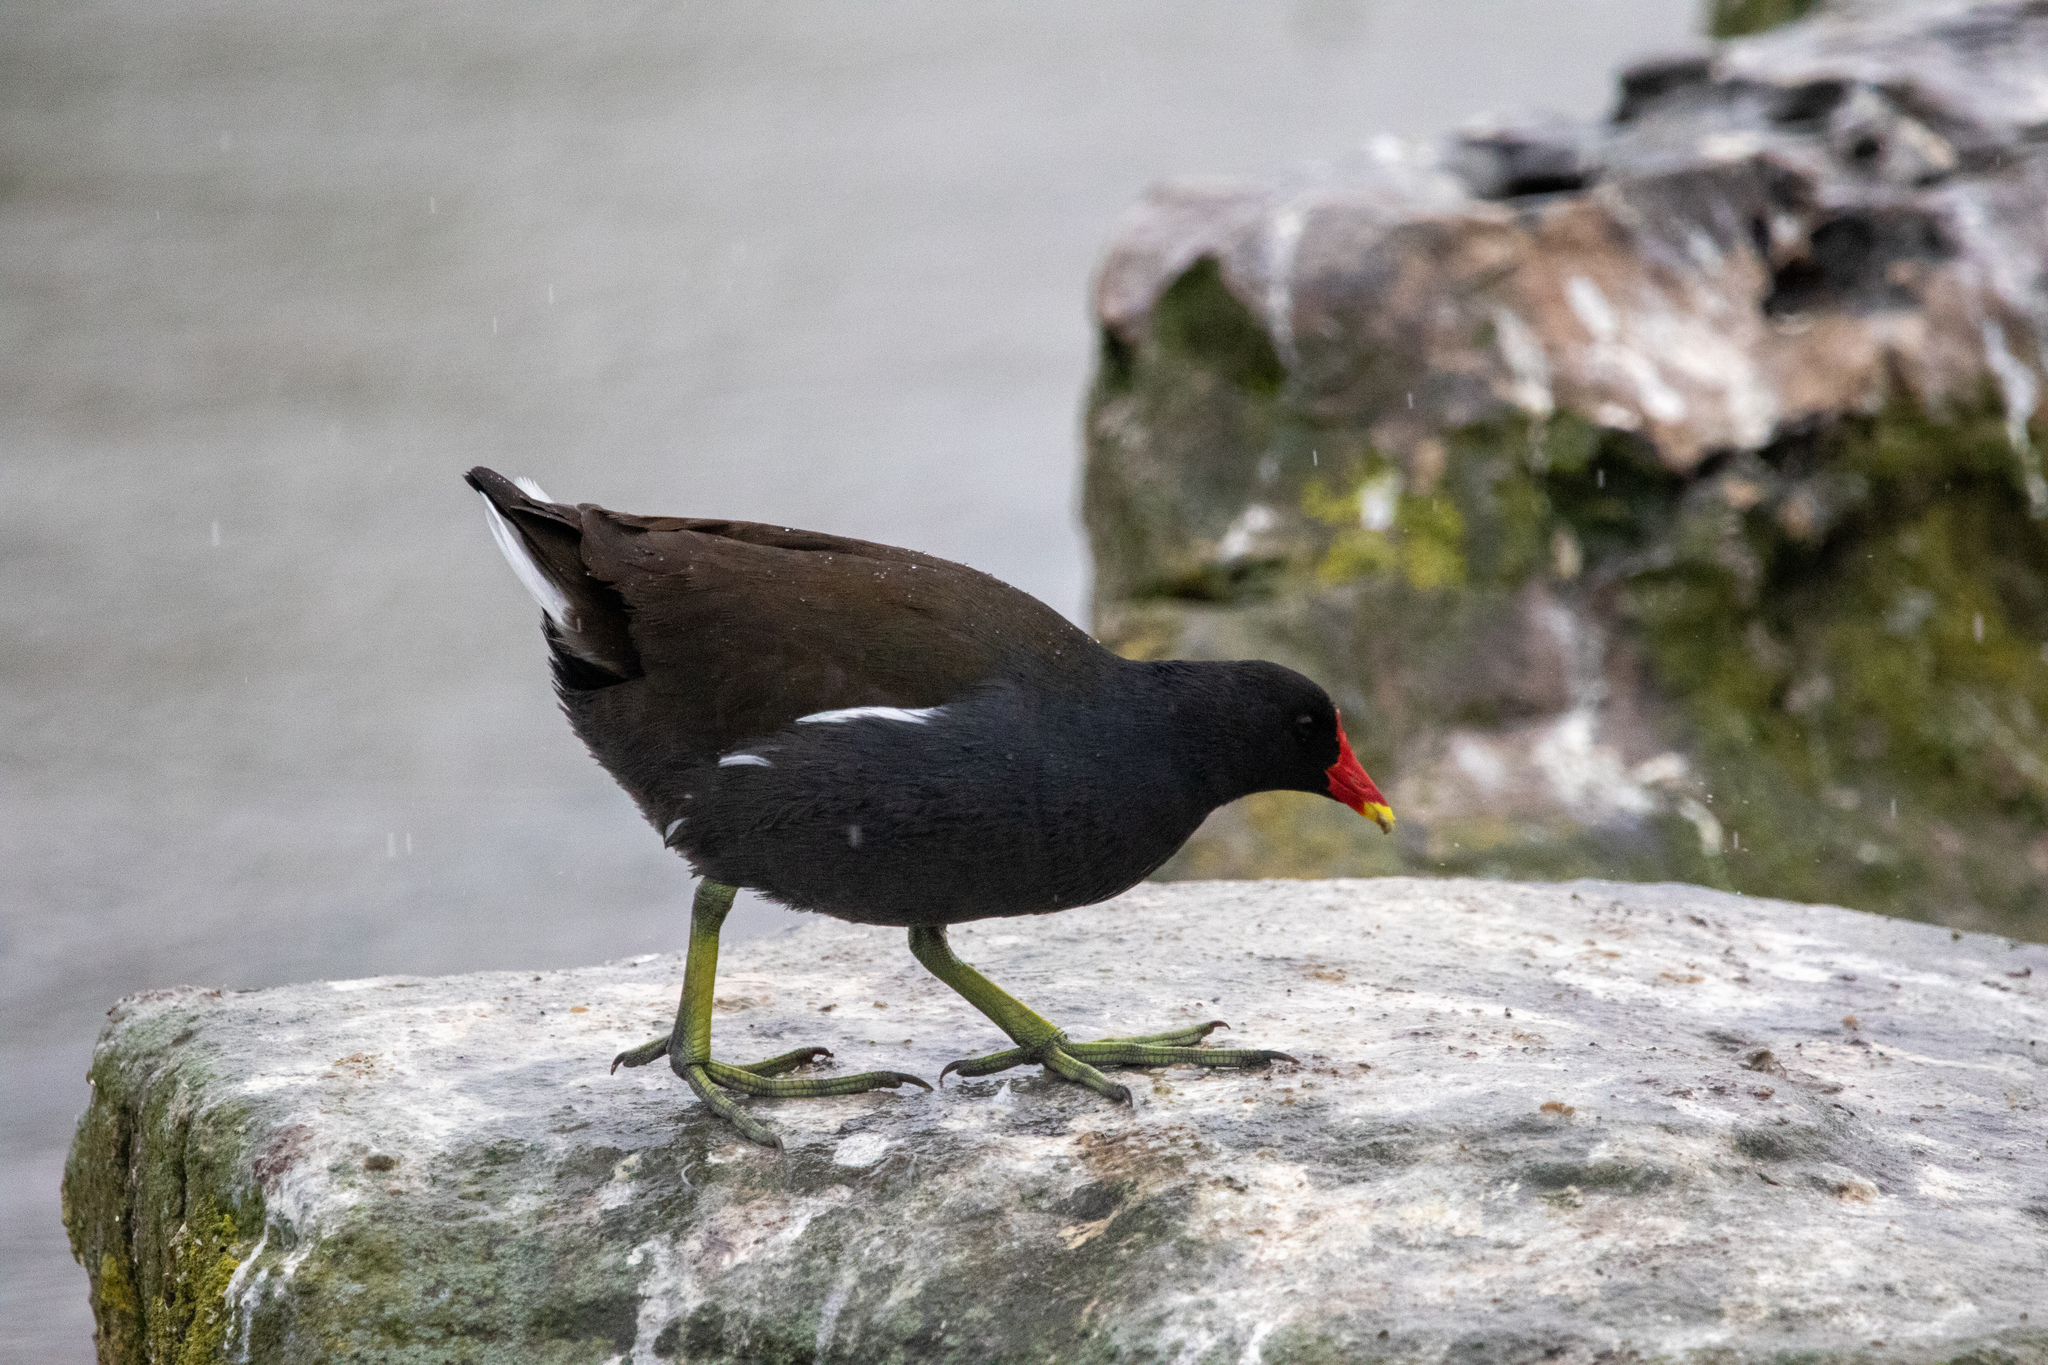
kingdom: Animalia
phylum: Chordata
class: Aves
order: Gruiformes
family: Rallidae
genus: Gallinula
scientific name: Gallinula chloropus
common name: Common moorhen
